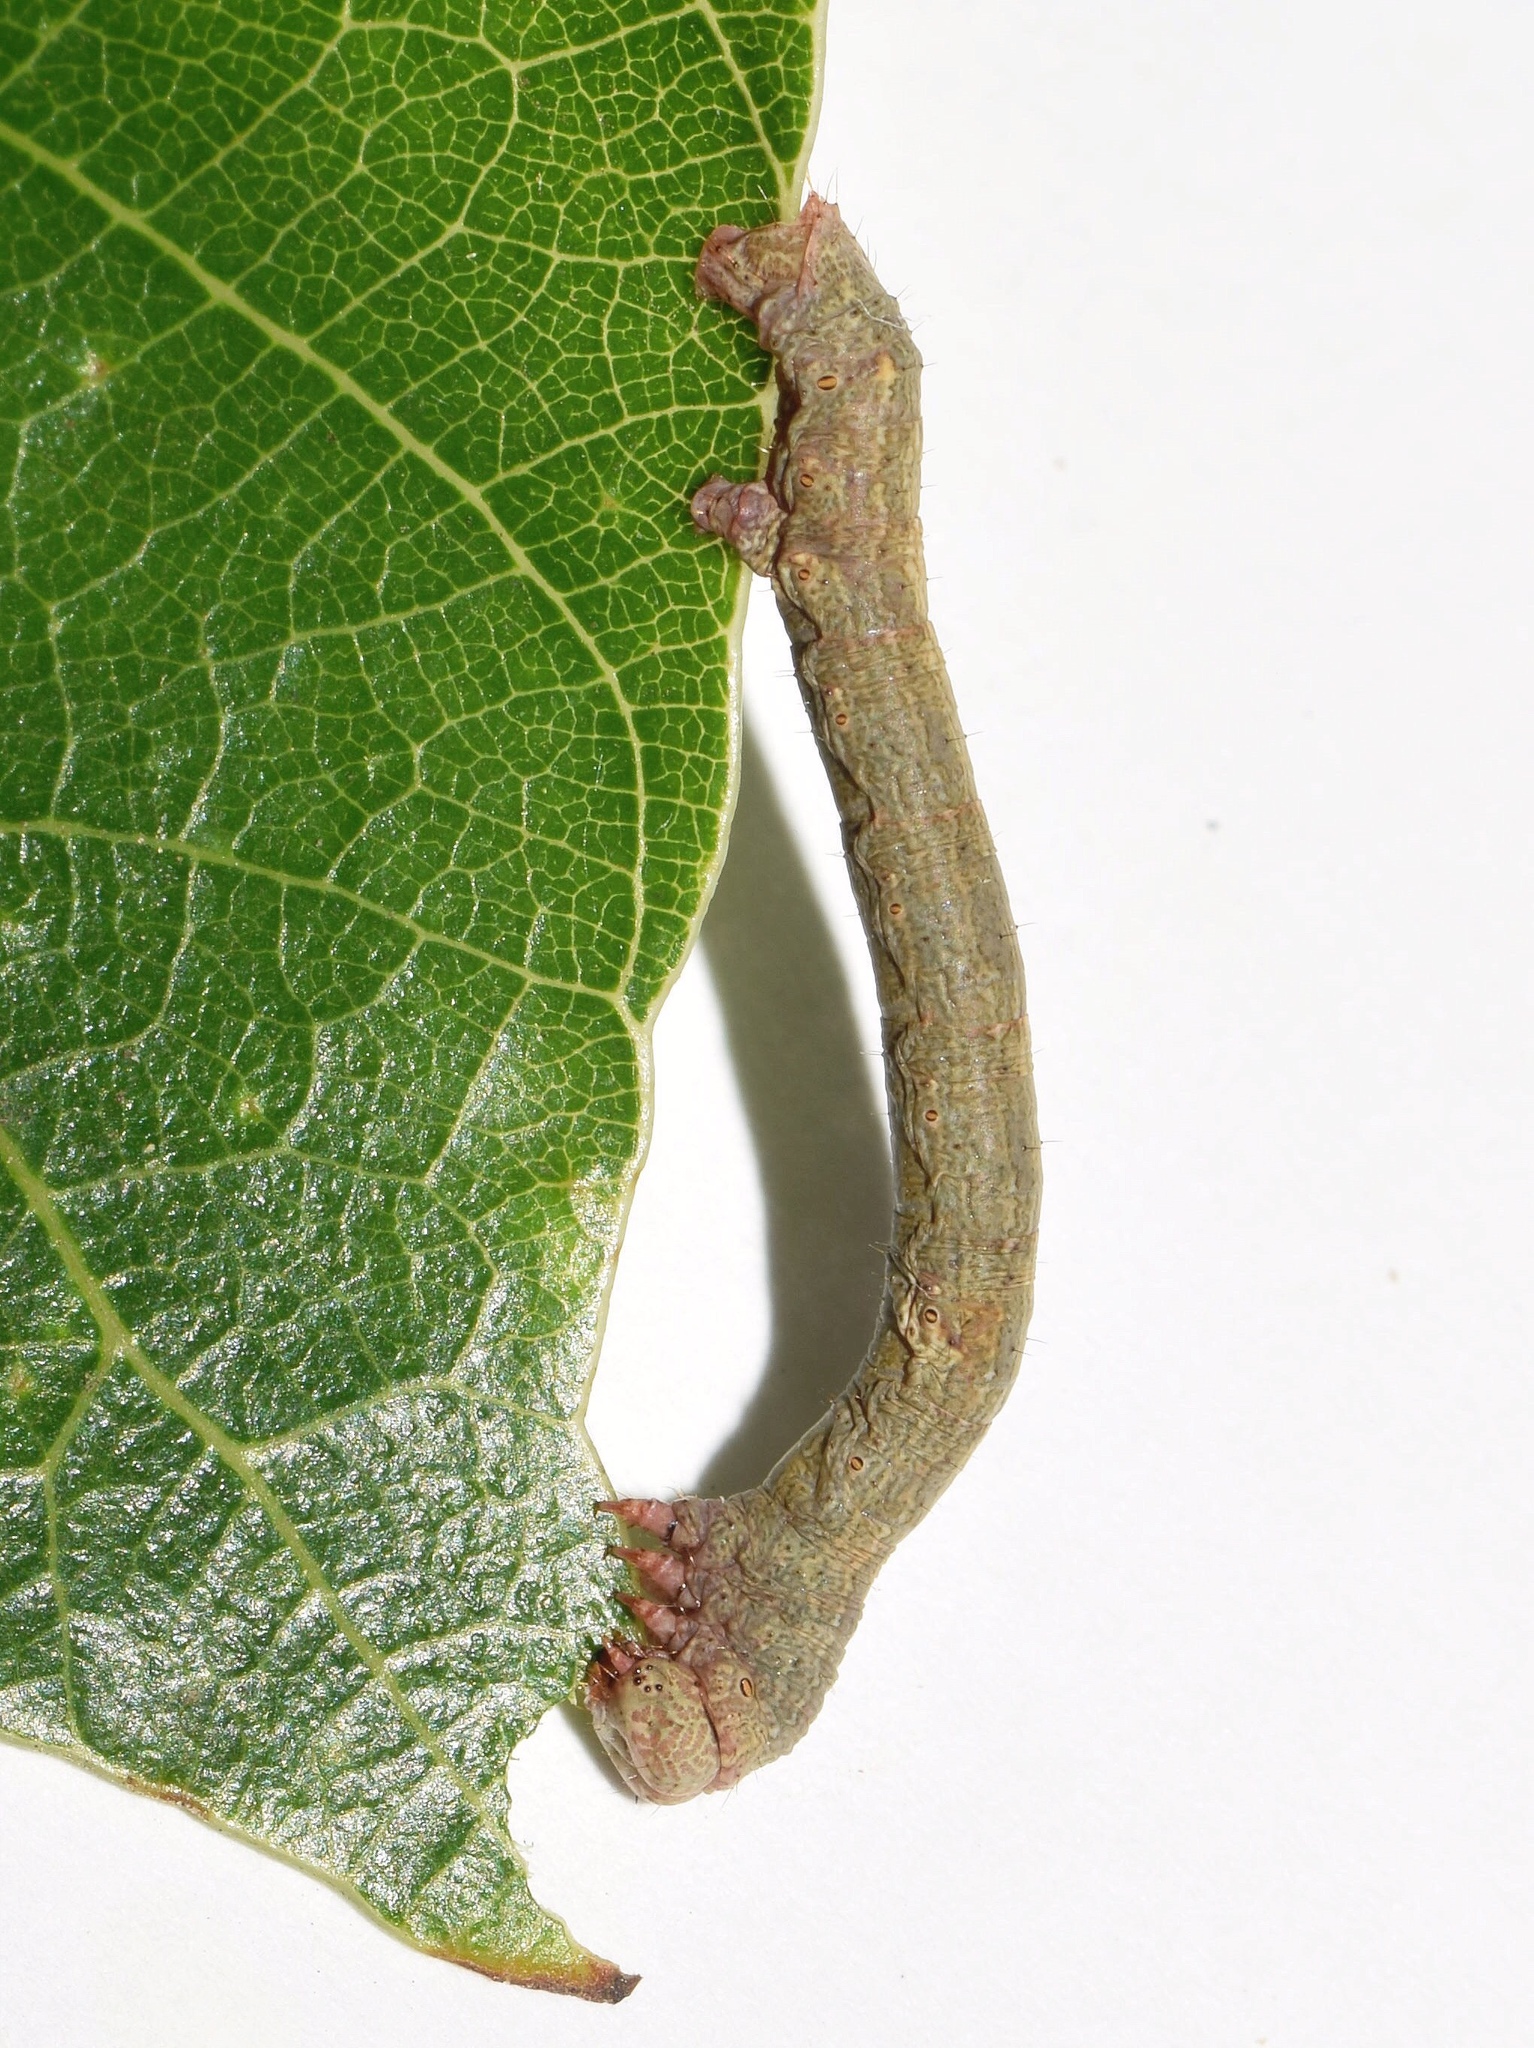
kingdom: Animalia
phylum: Arthropoda
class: Insecta
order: Lepidoptera
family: Geometridae
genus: Cleora
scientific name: Cleora tulbaghata
